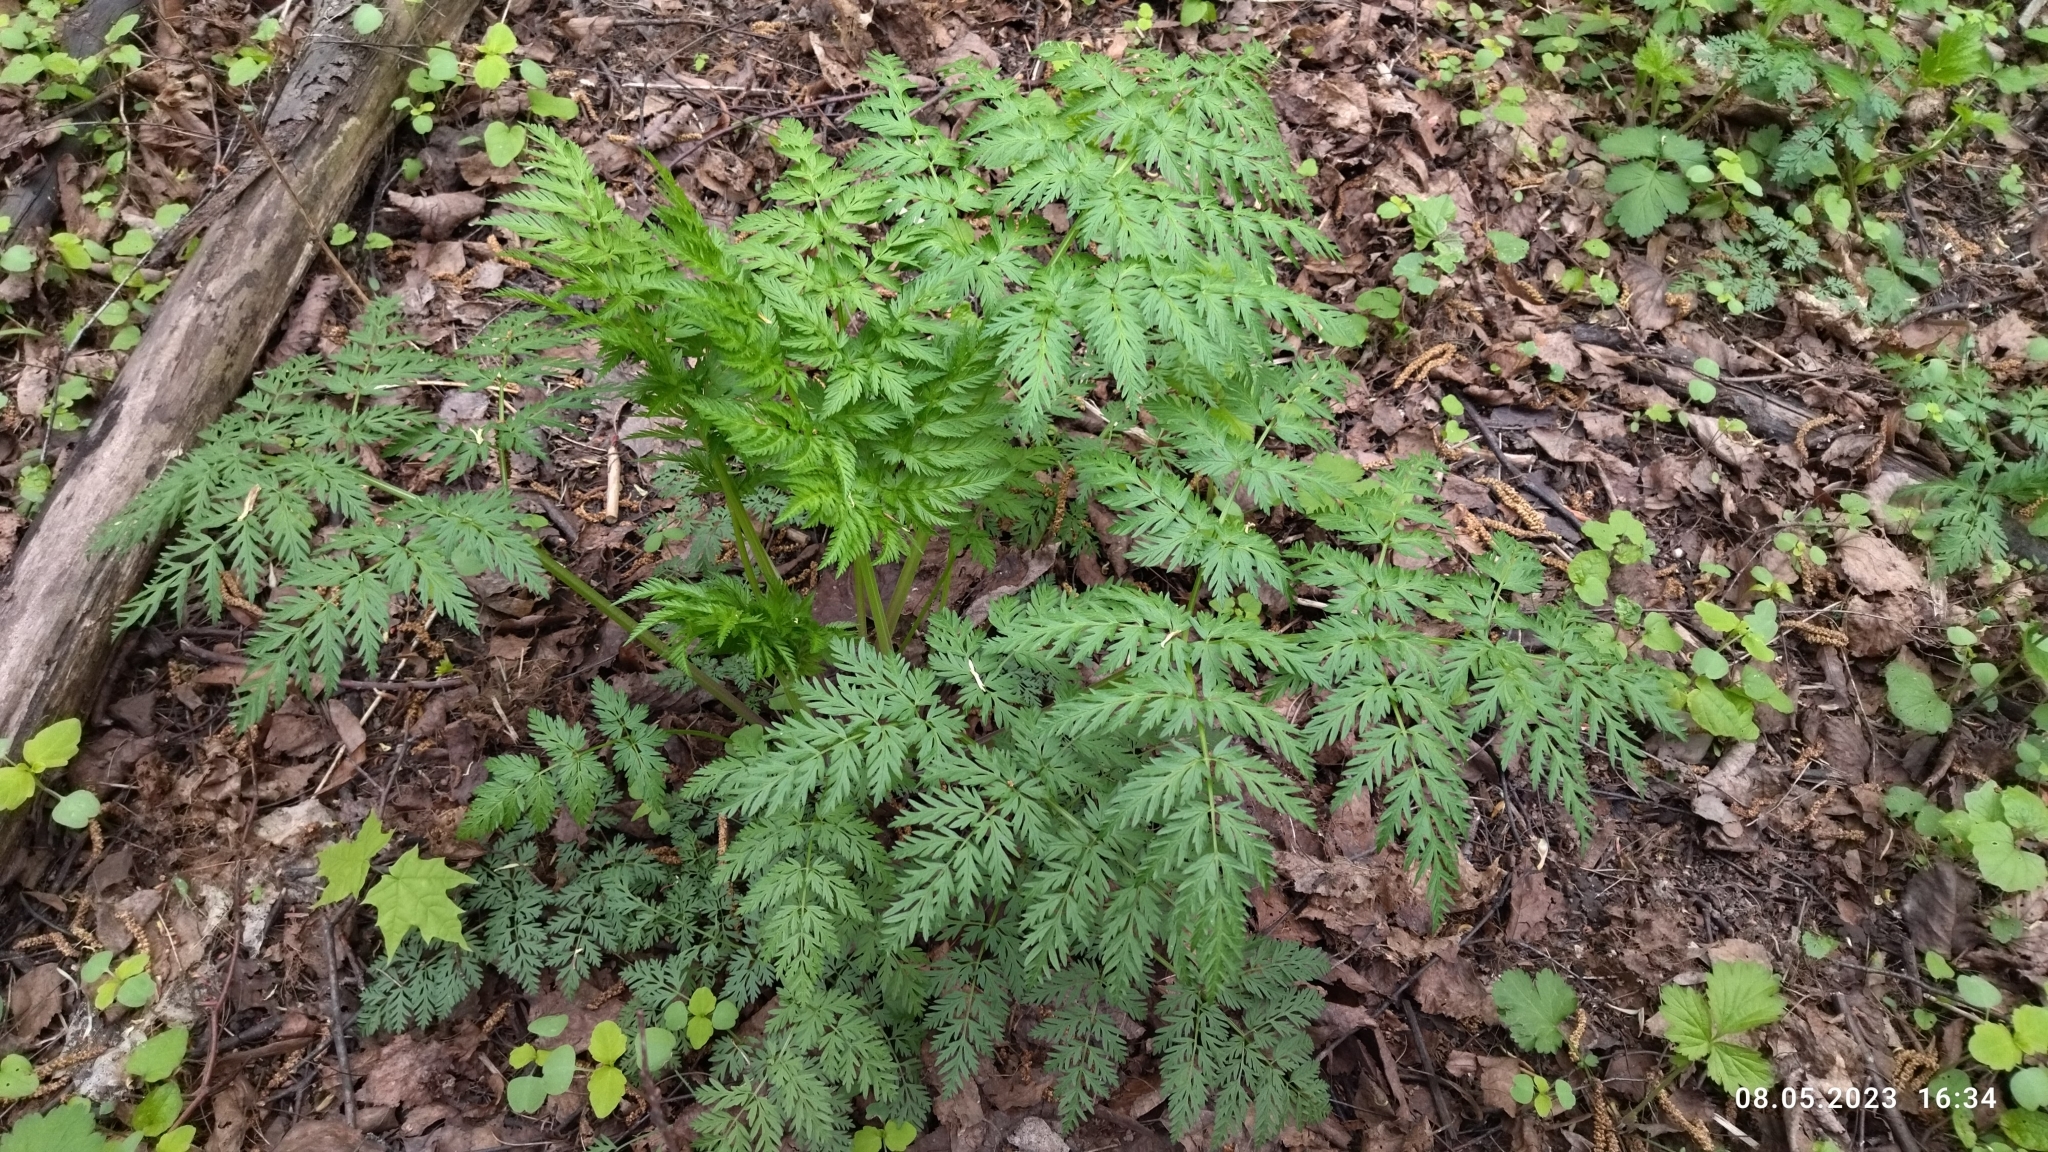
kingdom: Plantae
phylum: Tracheophyta
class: Magnoliopsida
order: Apiales
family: Apiaceae
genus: Anthriscus
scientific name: Anthriscus sylvestris
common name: Cow parsley
